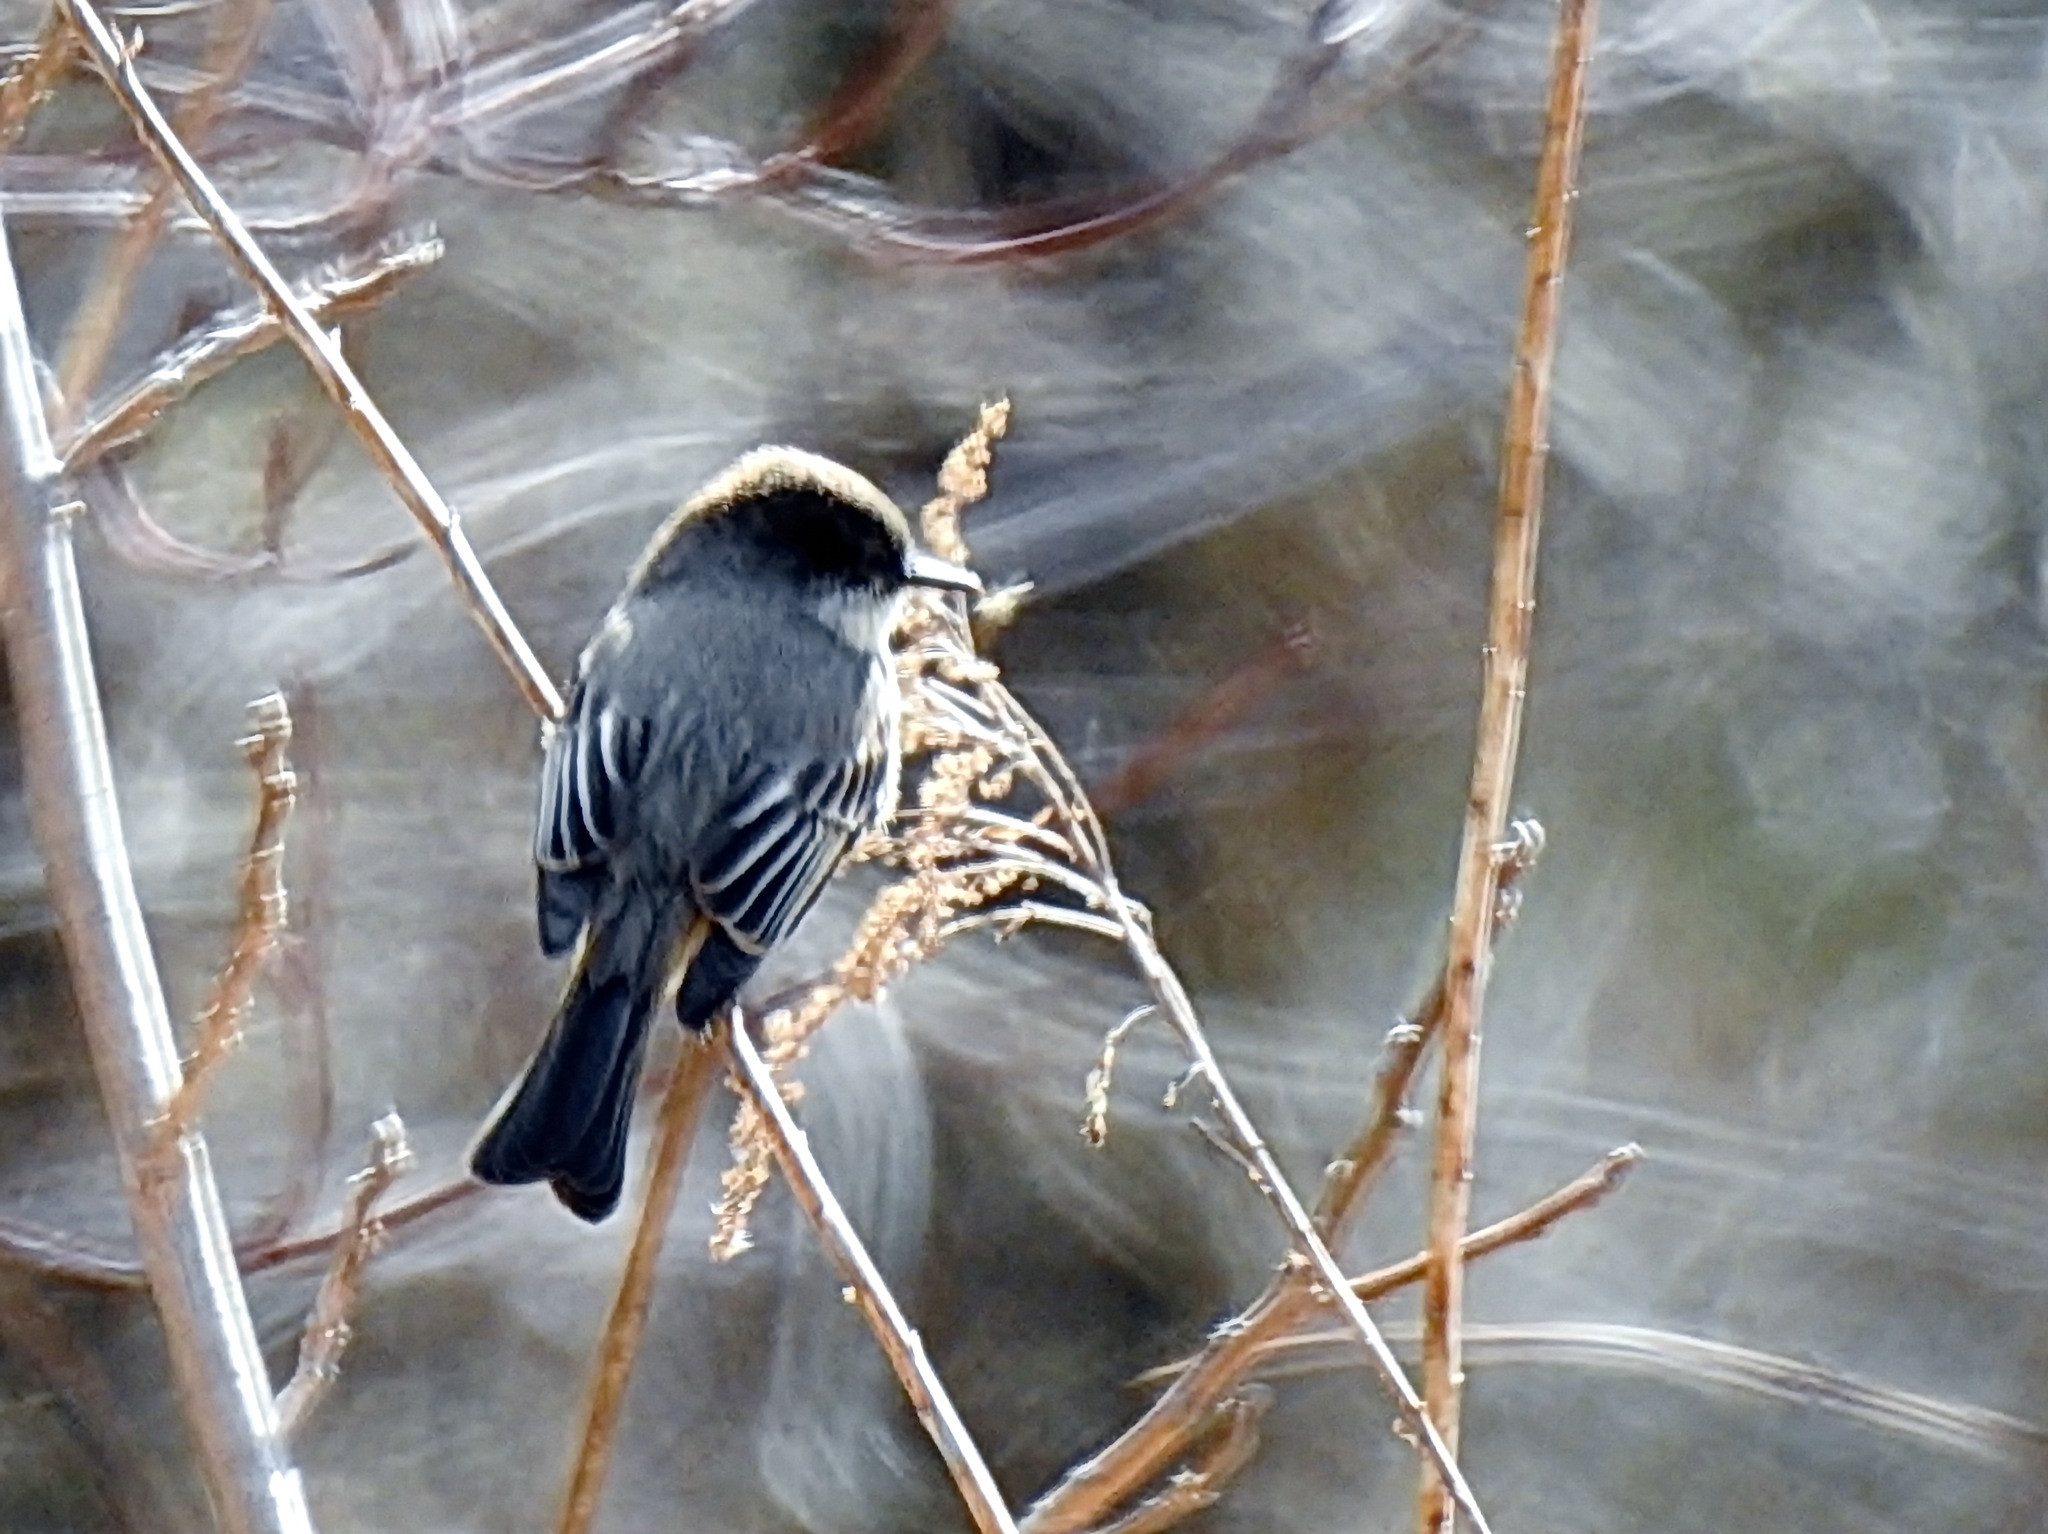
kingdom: Animalia
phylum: Chordata
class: Aves
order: Passeriformes
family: Tyrannidae
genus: Sayornis
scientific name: Sayornis phoebe
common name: Eastern phoebe
